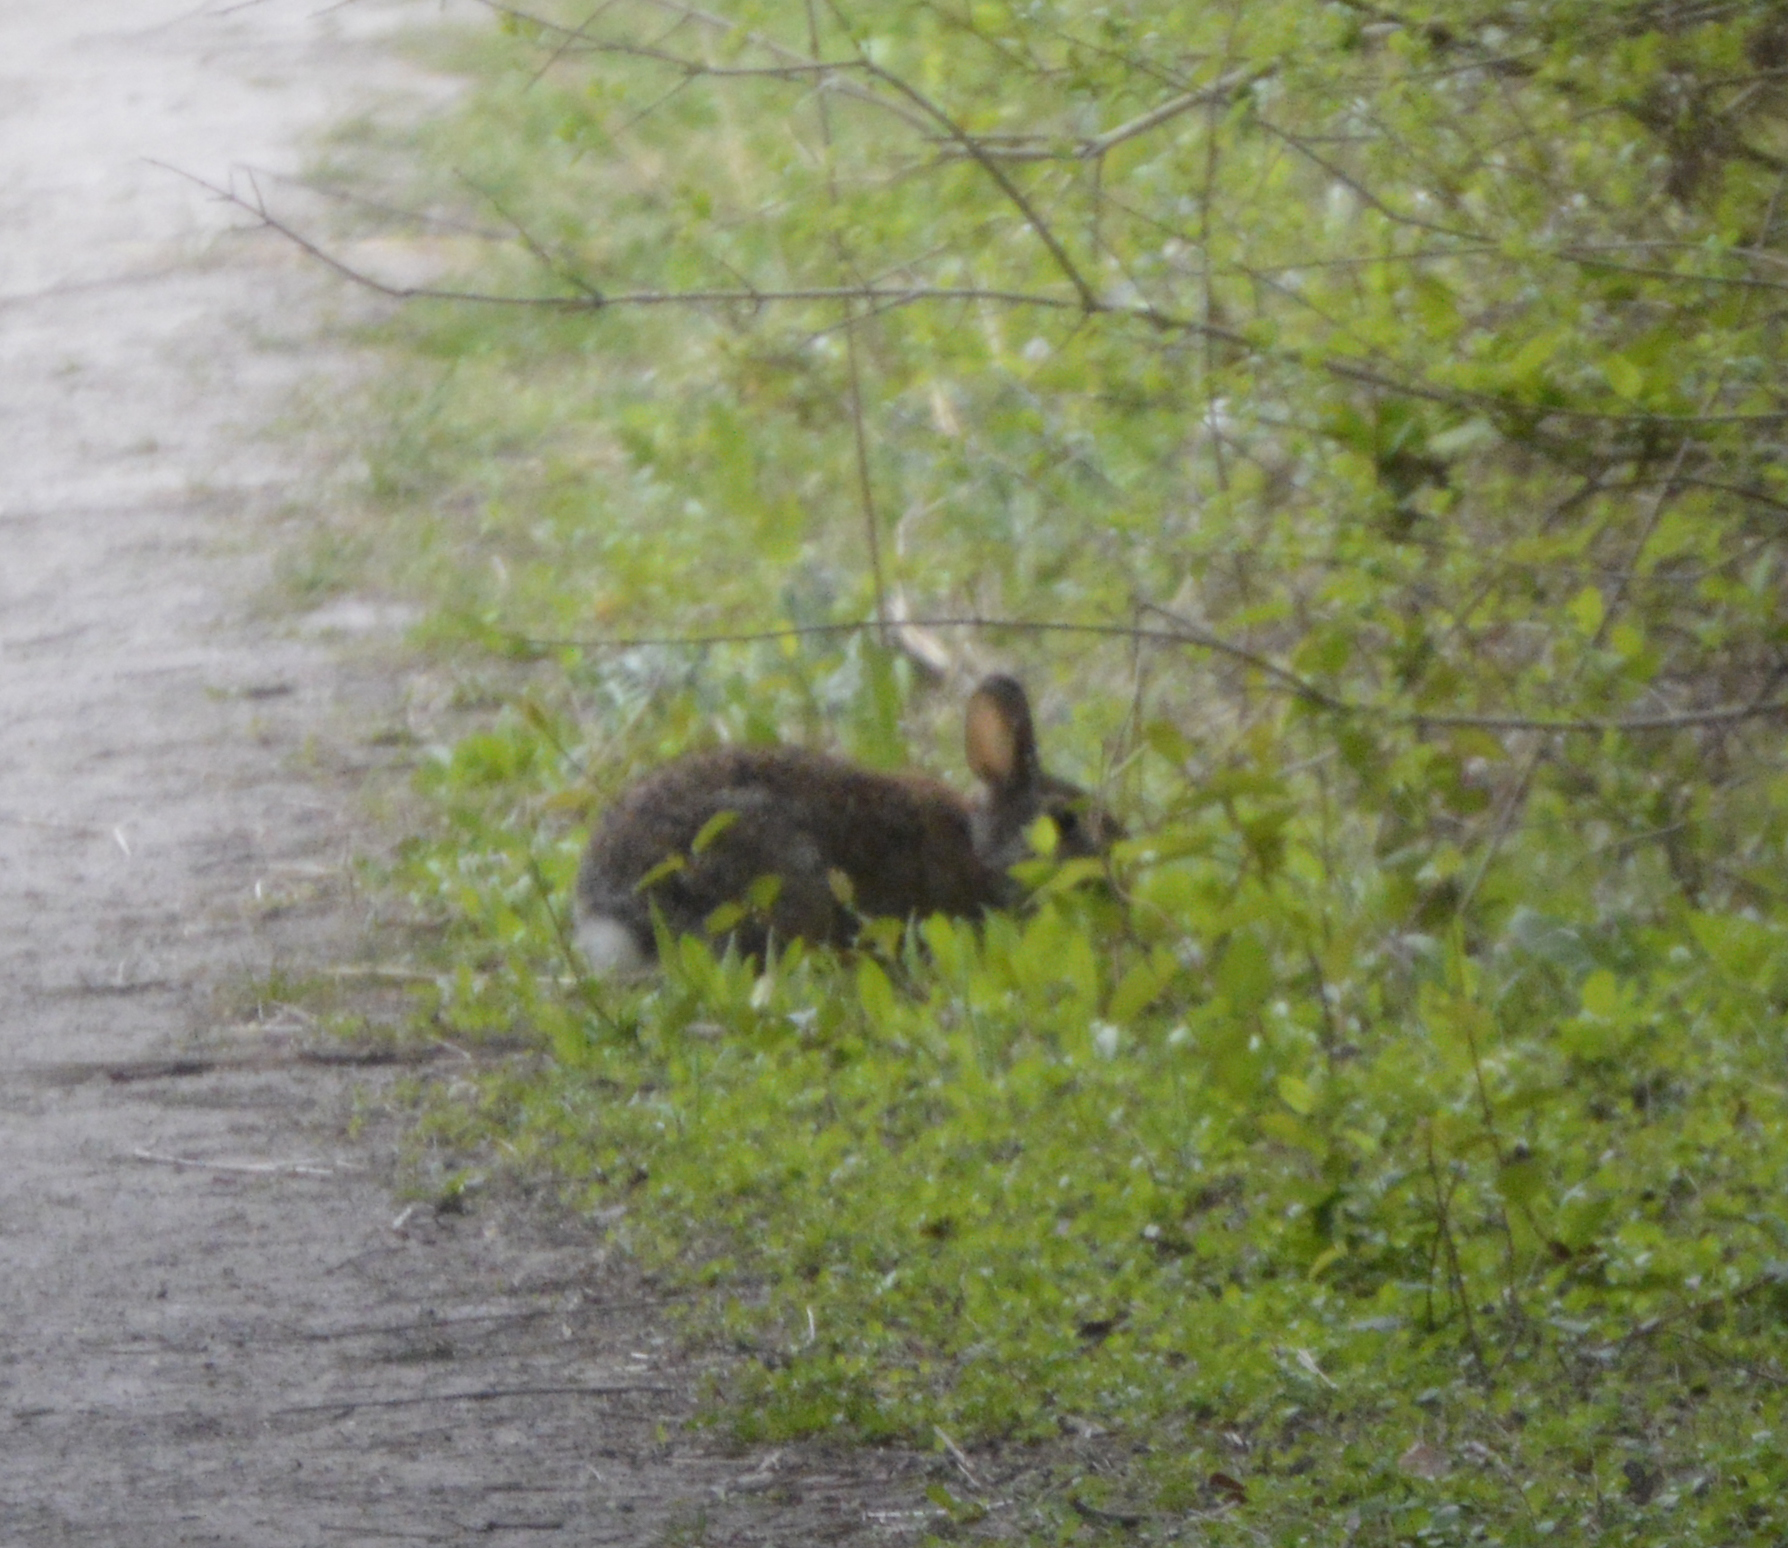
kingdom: Animalia
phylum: Chordata
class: Mammalia
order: Lagomorpha
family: Leporidae
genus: Sylvilagus
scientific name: Sylvilagus floridanus
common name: Eastern cottontail
